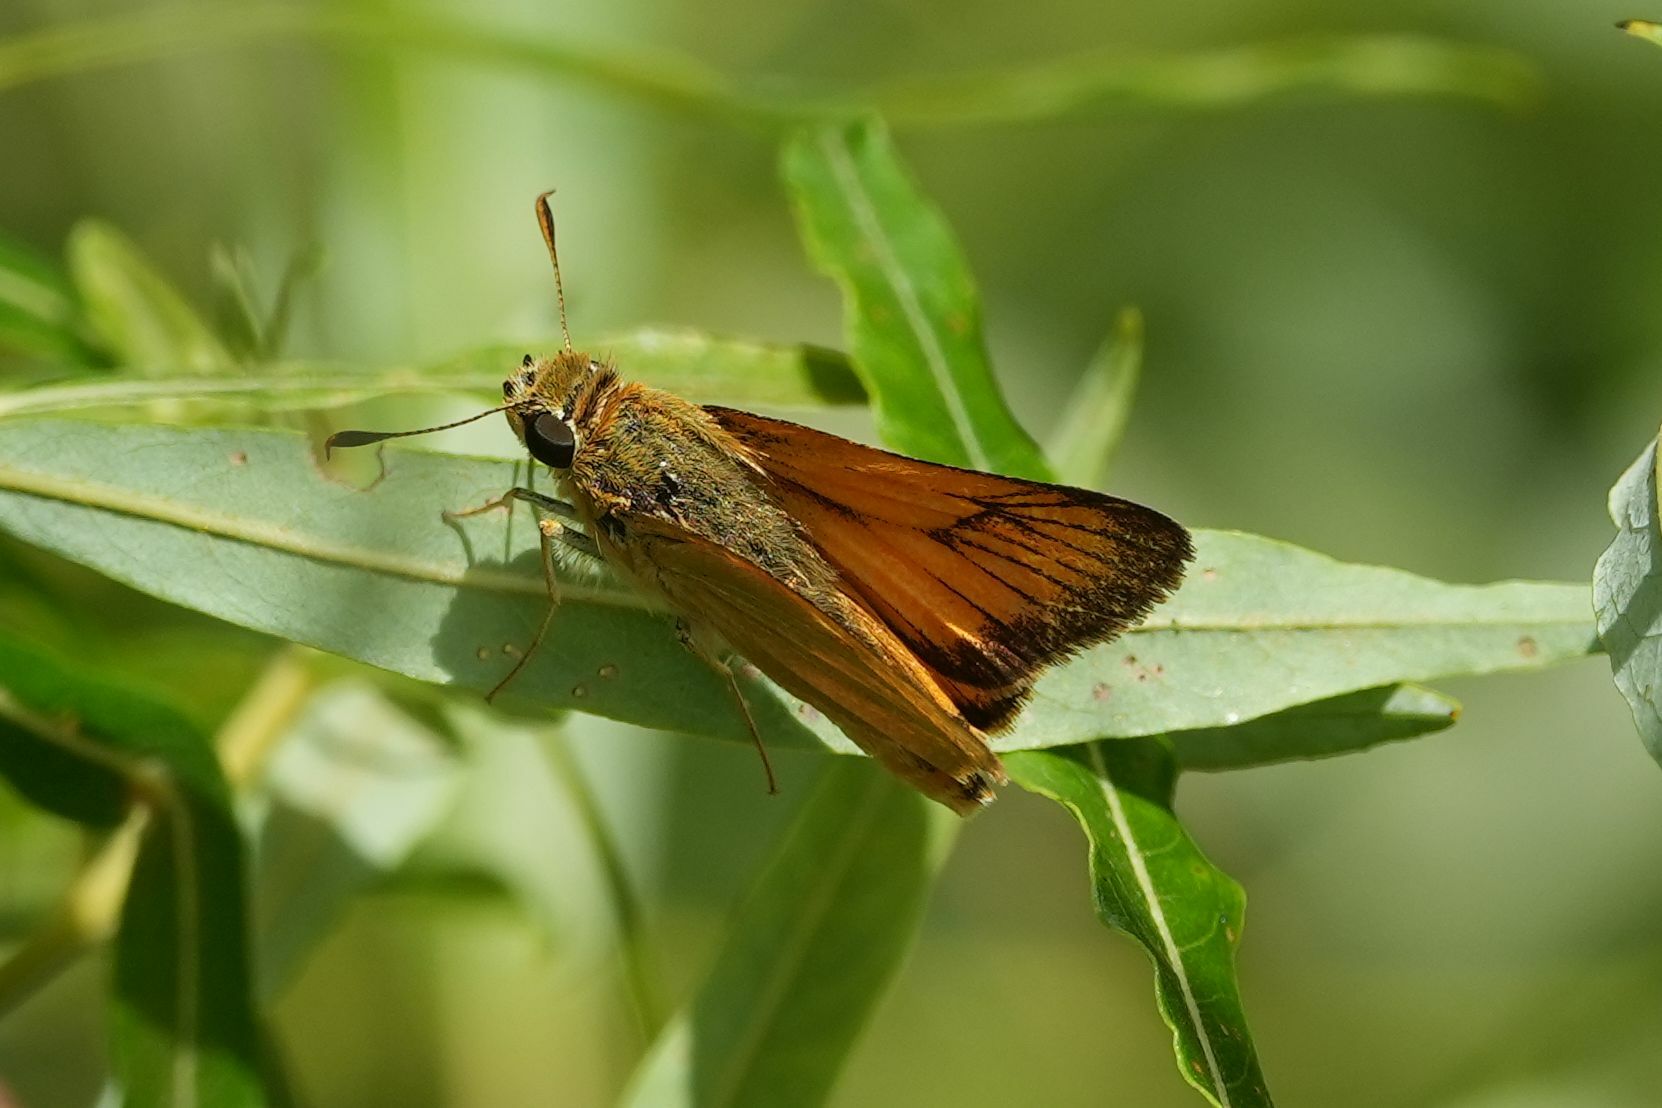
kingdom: Animalia
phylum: Arthropoda
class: Insecta
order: Lepidoptera
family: Hesperiidae
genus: Atrytone
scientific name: Atrytone delaware
